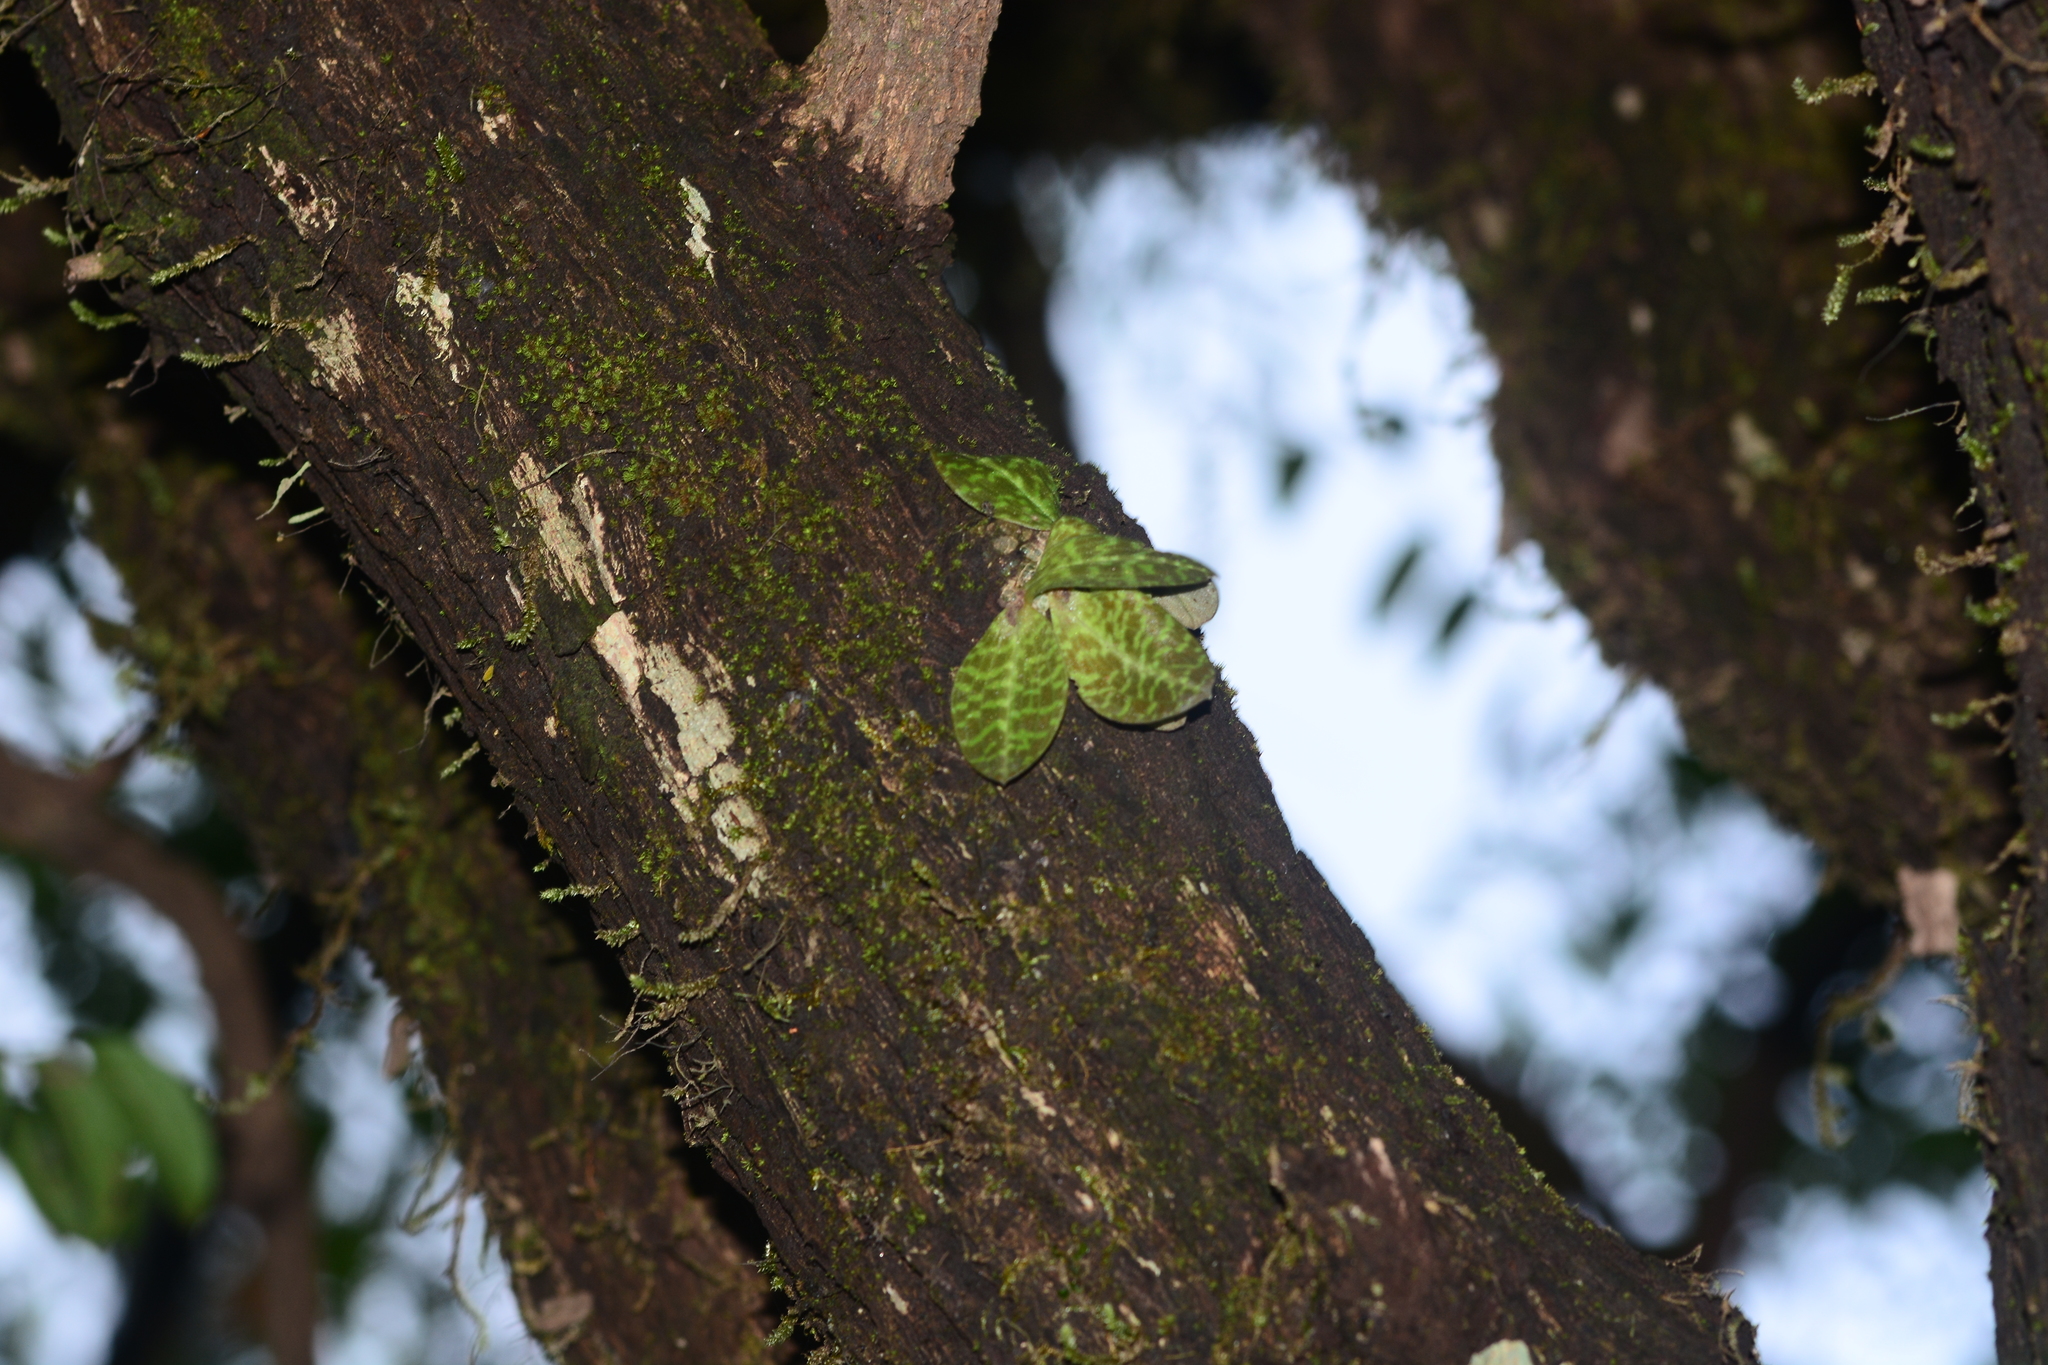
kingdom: Plantae
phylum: Tracheophyta
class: Liliopsida
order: Asparagales
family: Orchidaceae
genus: Porpax
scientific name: Porpax jerdoniana
